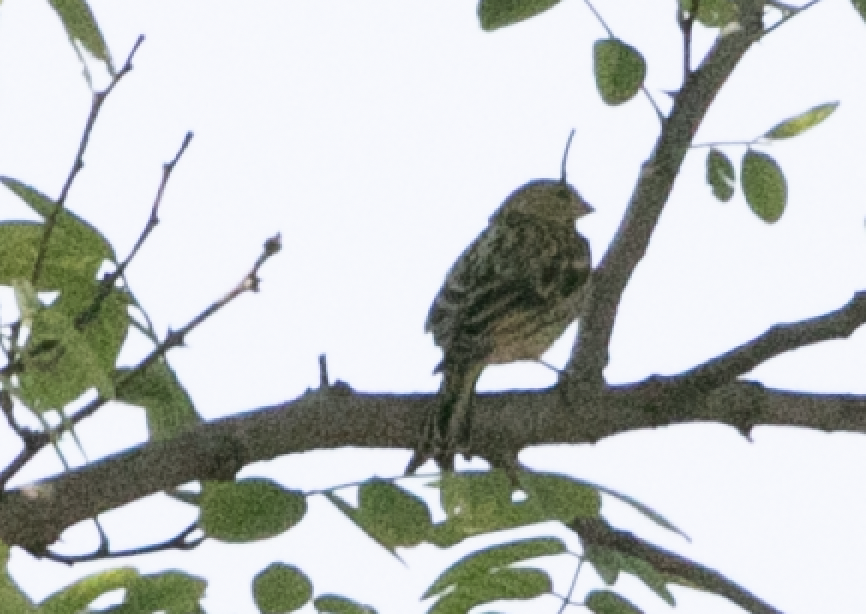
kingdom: Animalia
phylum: Chordata
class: Aves
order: Passeriformes
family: Fringillidae
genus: Serinus
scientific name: Serinus serinus
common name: European serin
